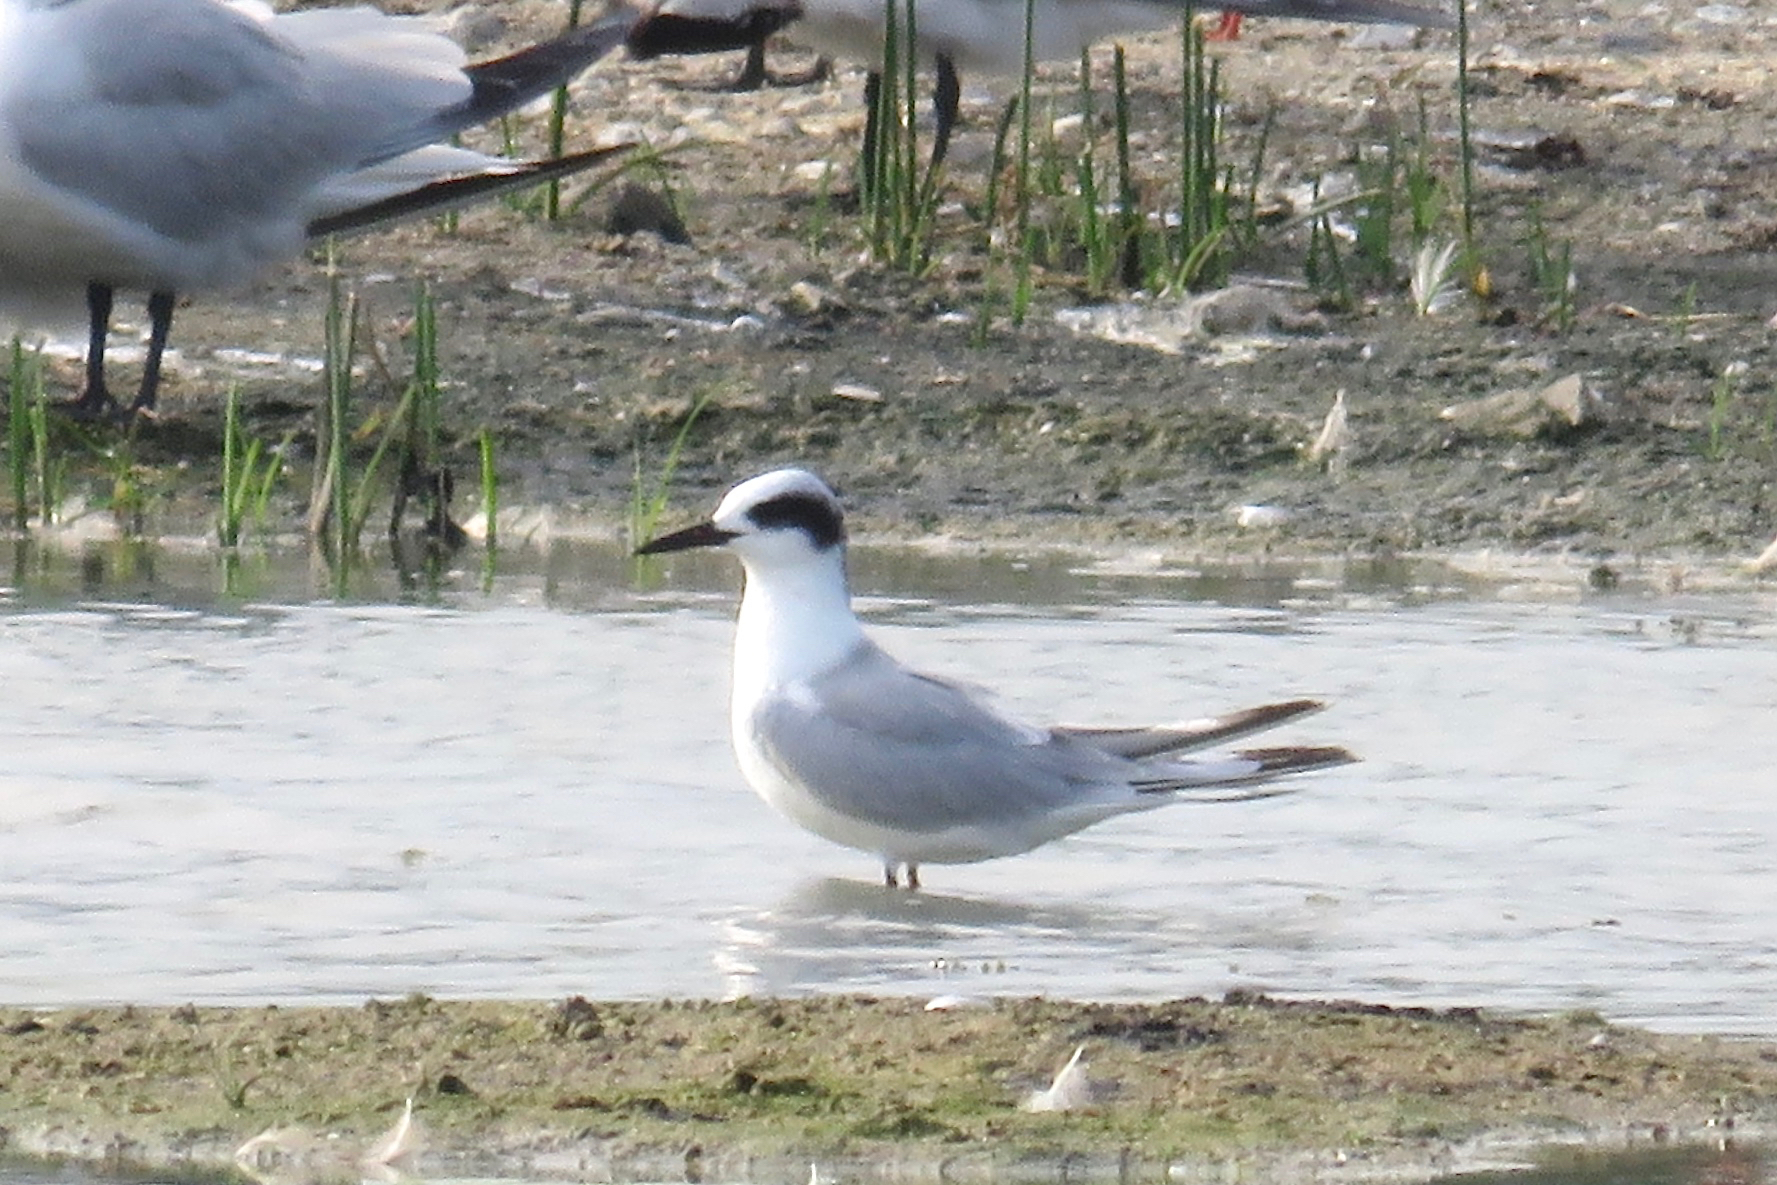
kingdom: Animalia
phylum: Chordata
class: Aves
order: Charadriiformes
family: Laridae
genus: Sterna
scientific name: Sterna forsteri
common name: Forster's tern
